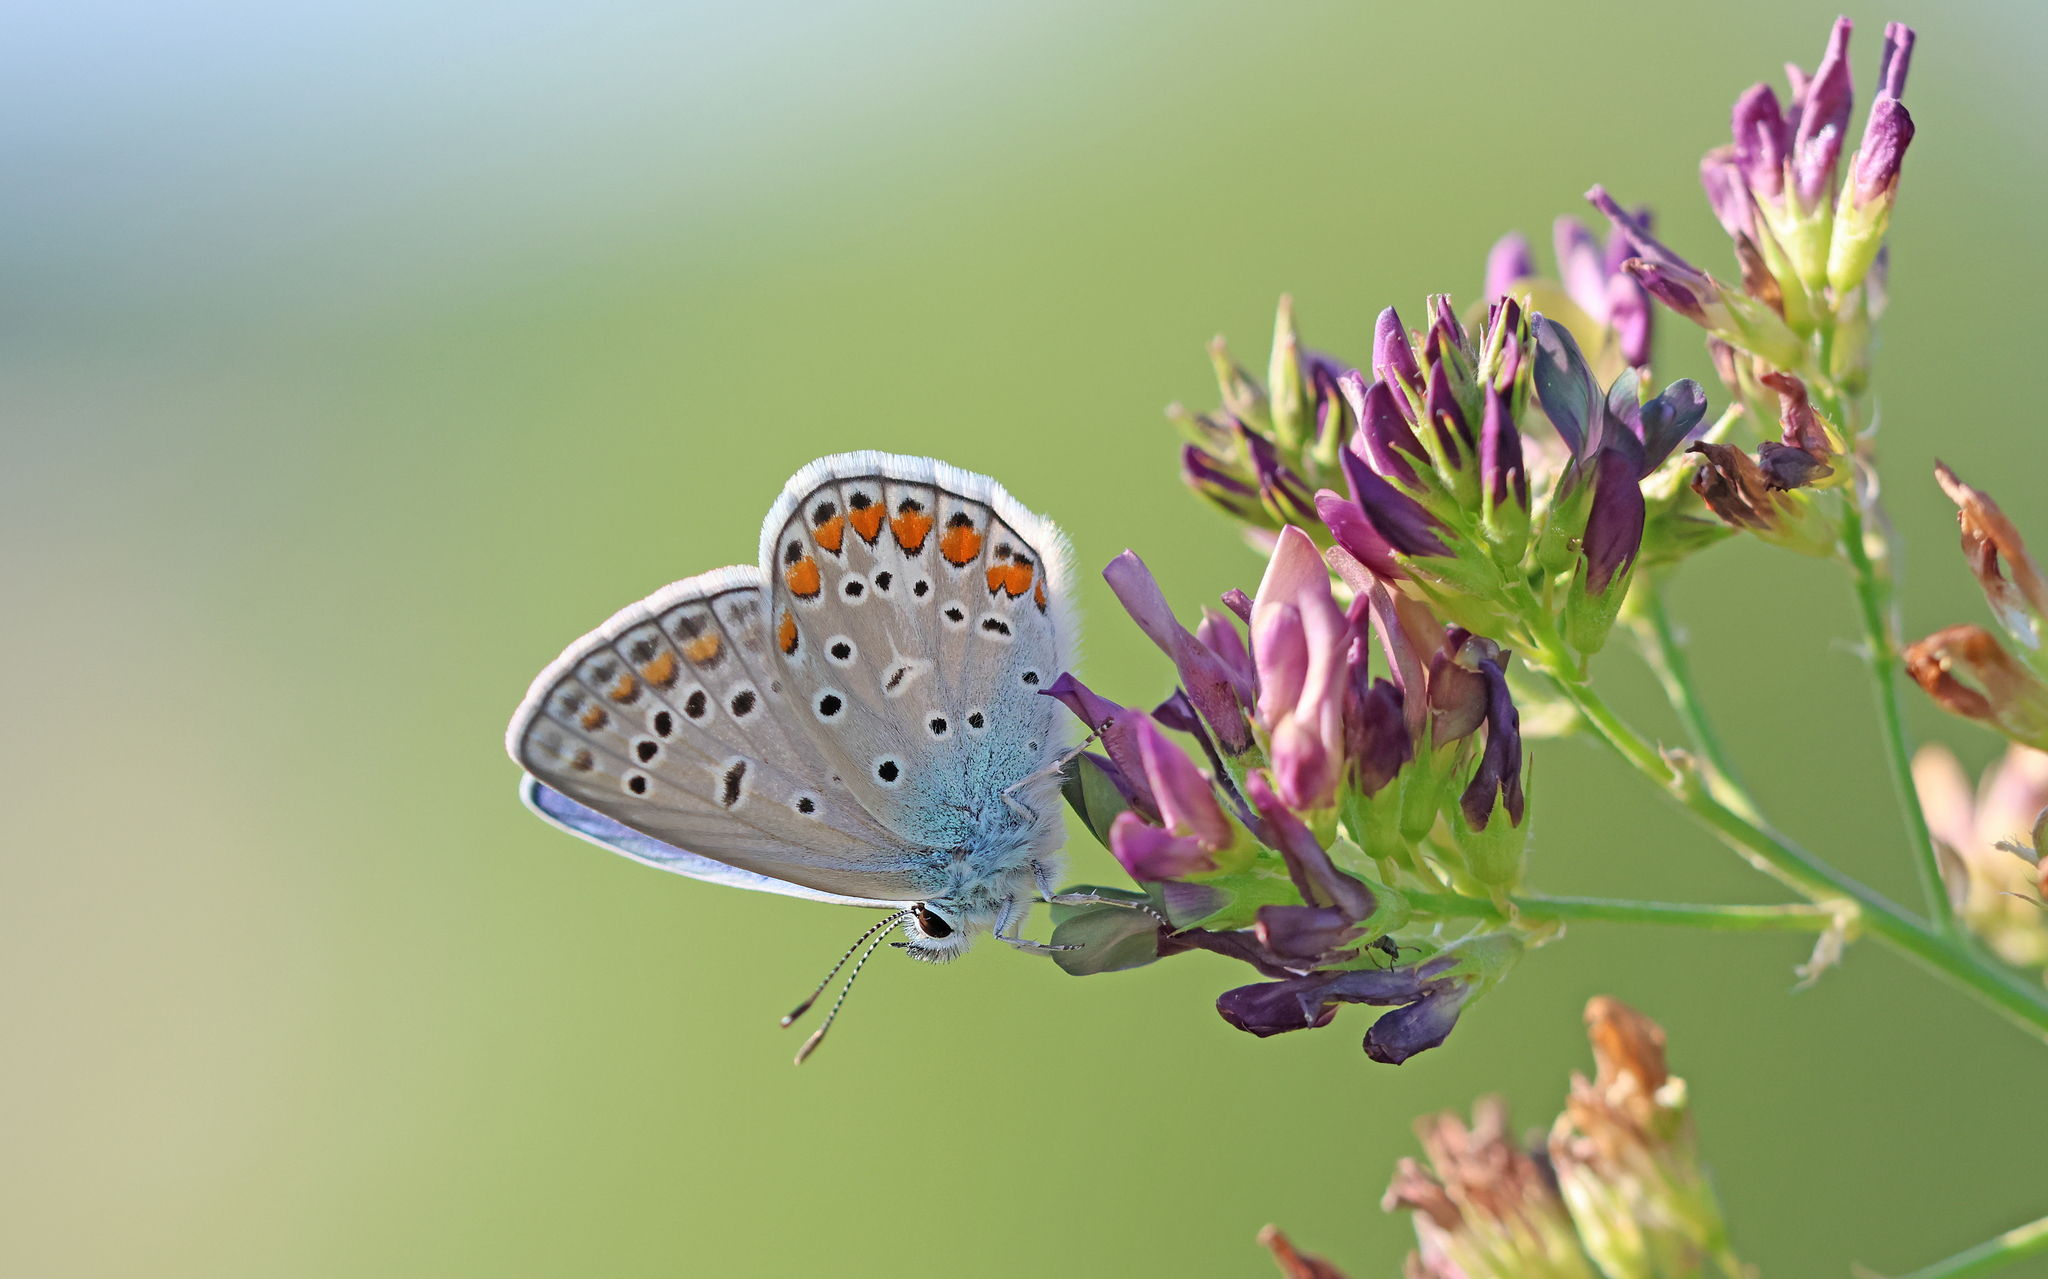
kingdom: Animalia
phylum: Arthropoda
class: Insecta
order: Lepidoptera
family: Lycaenidae
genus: Polyommatus
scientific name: Polyommatus icarus
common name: Common blue
